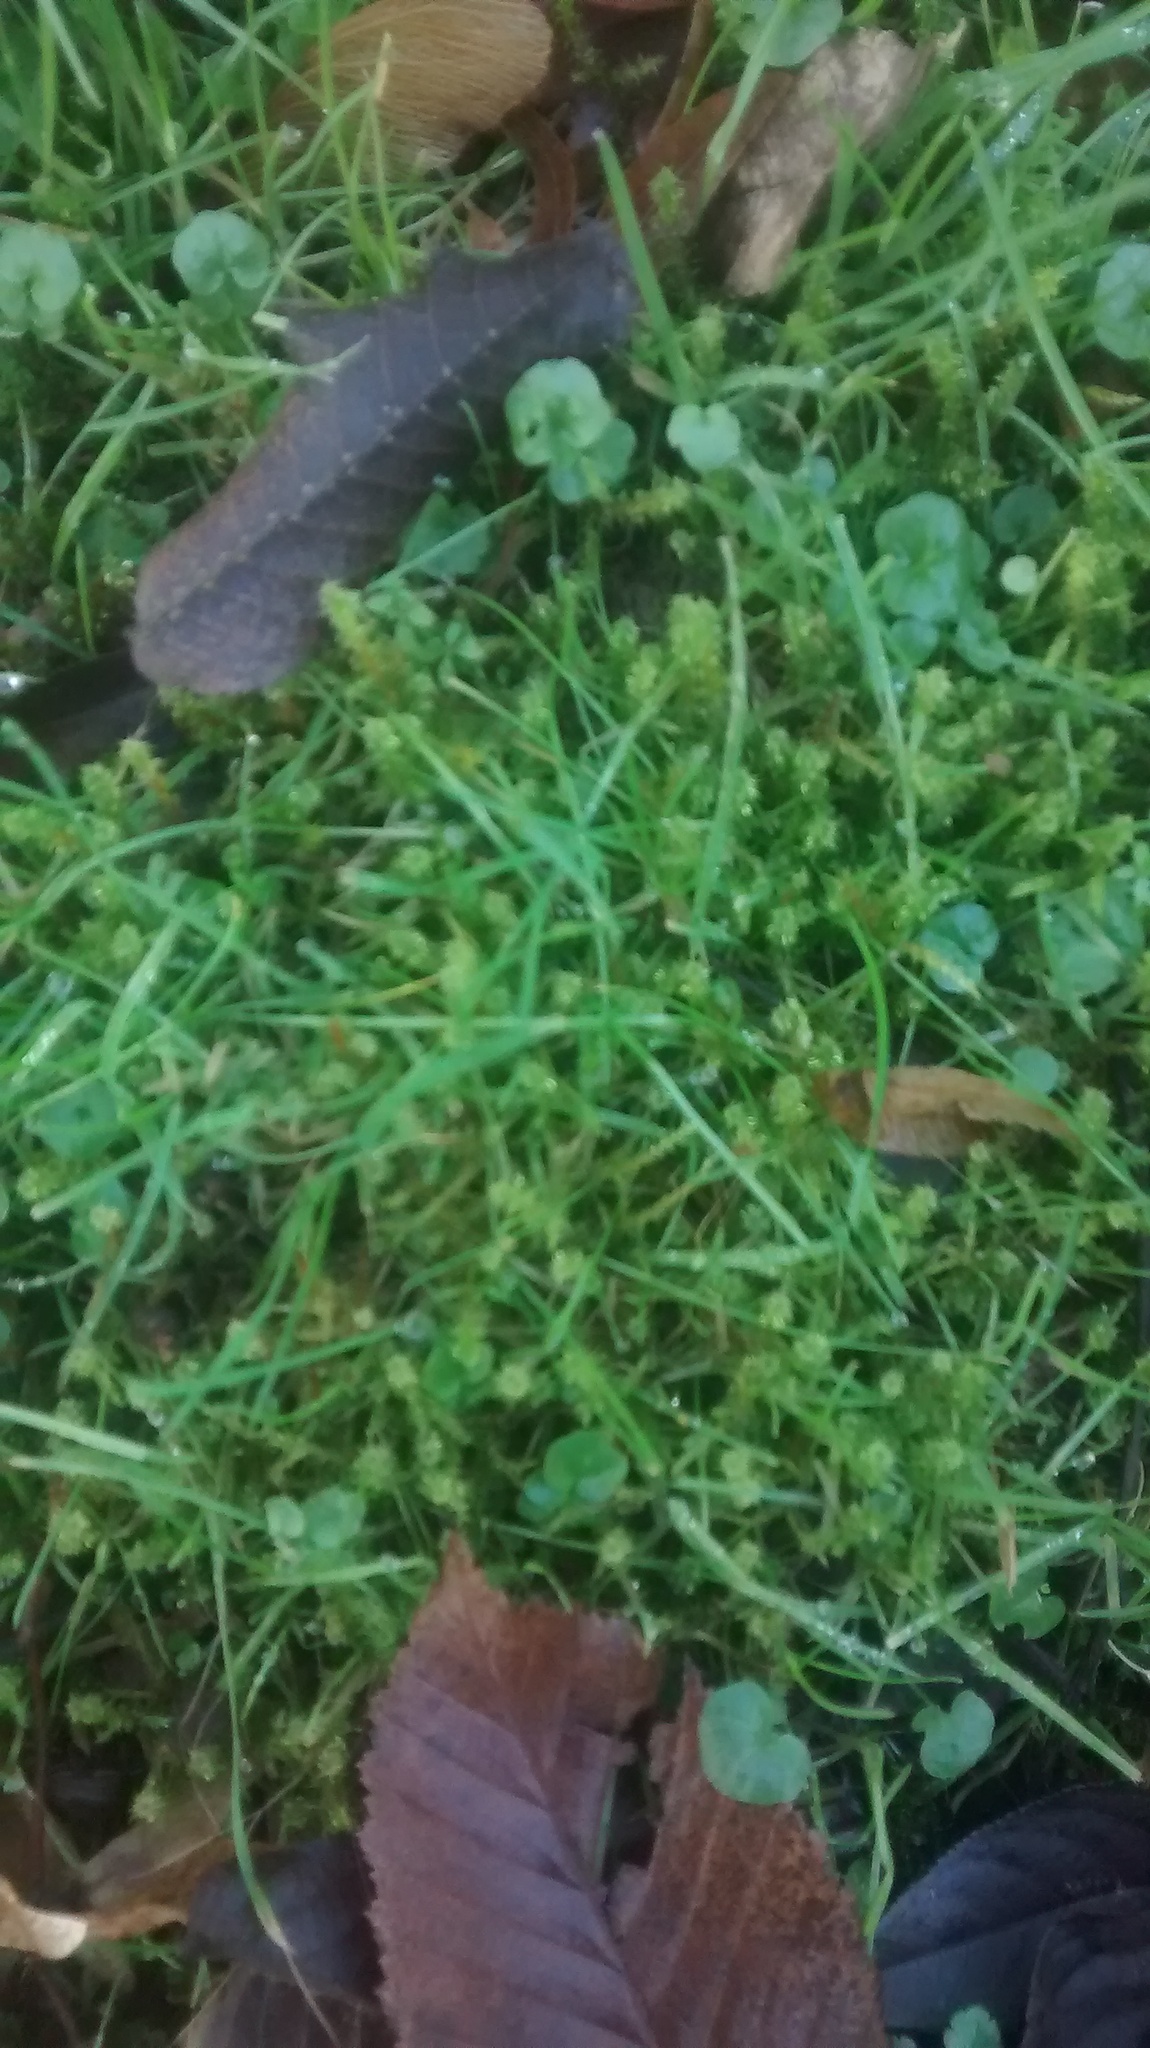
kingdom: Plantae
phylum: Bryophyta
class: Bryopsida
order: Hypnales
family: Hylocomiaceae
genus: Rhytidiadelphus
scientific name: Rhytidiadelphus squarrosus
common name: Springy turf-moss
